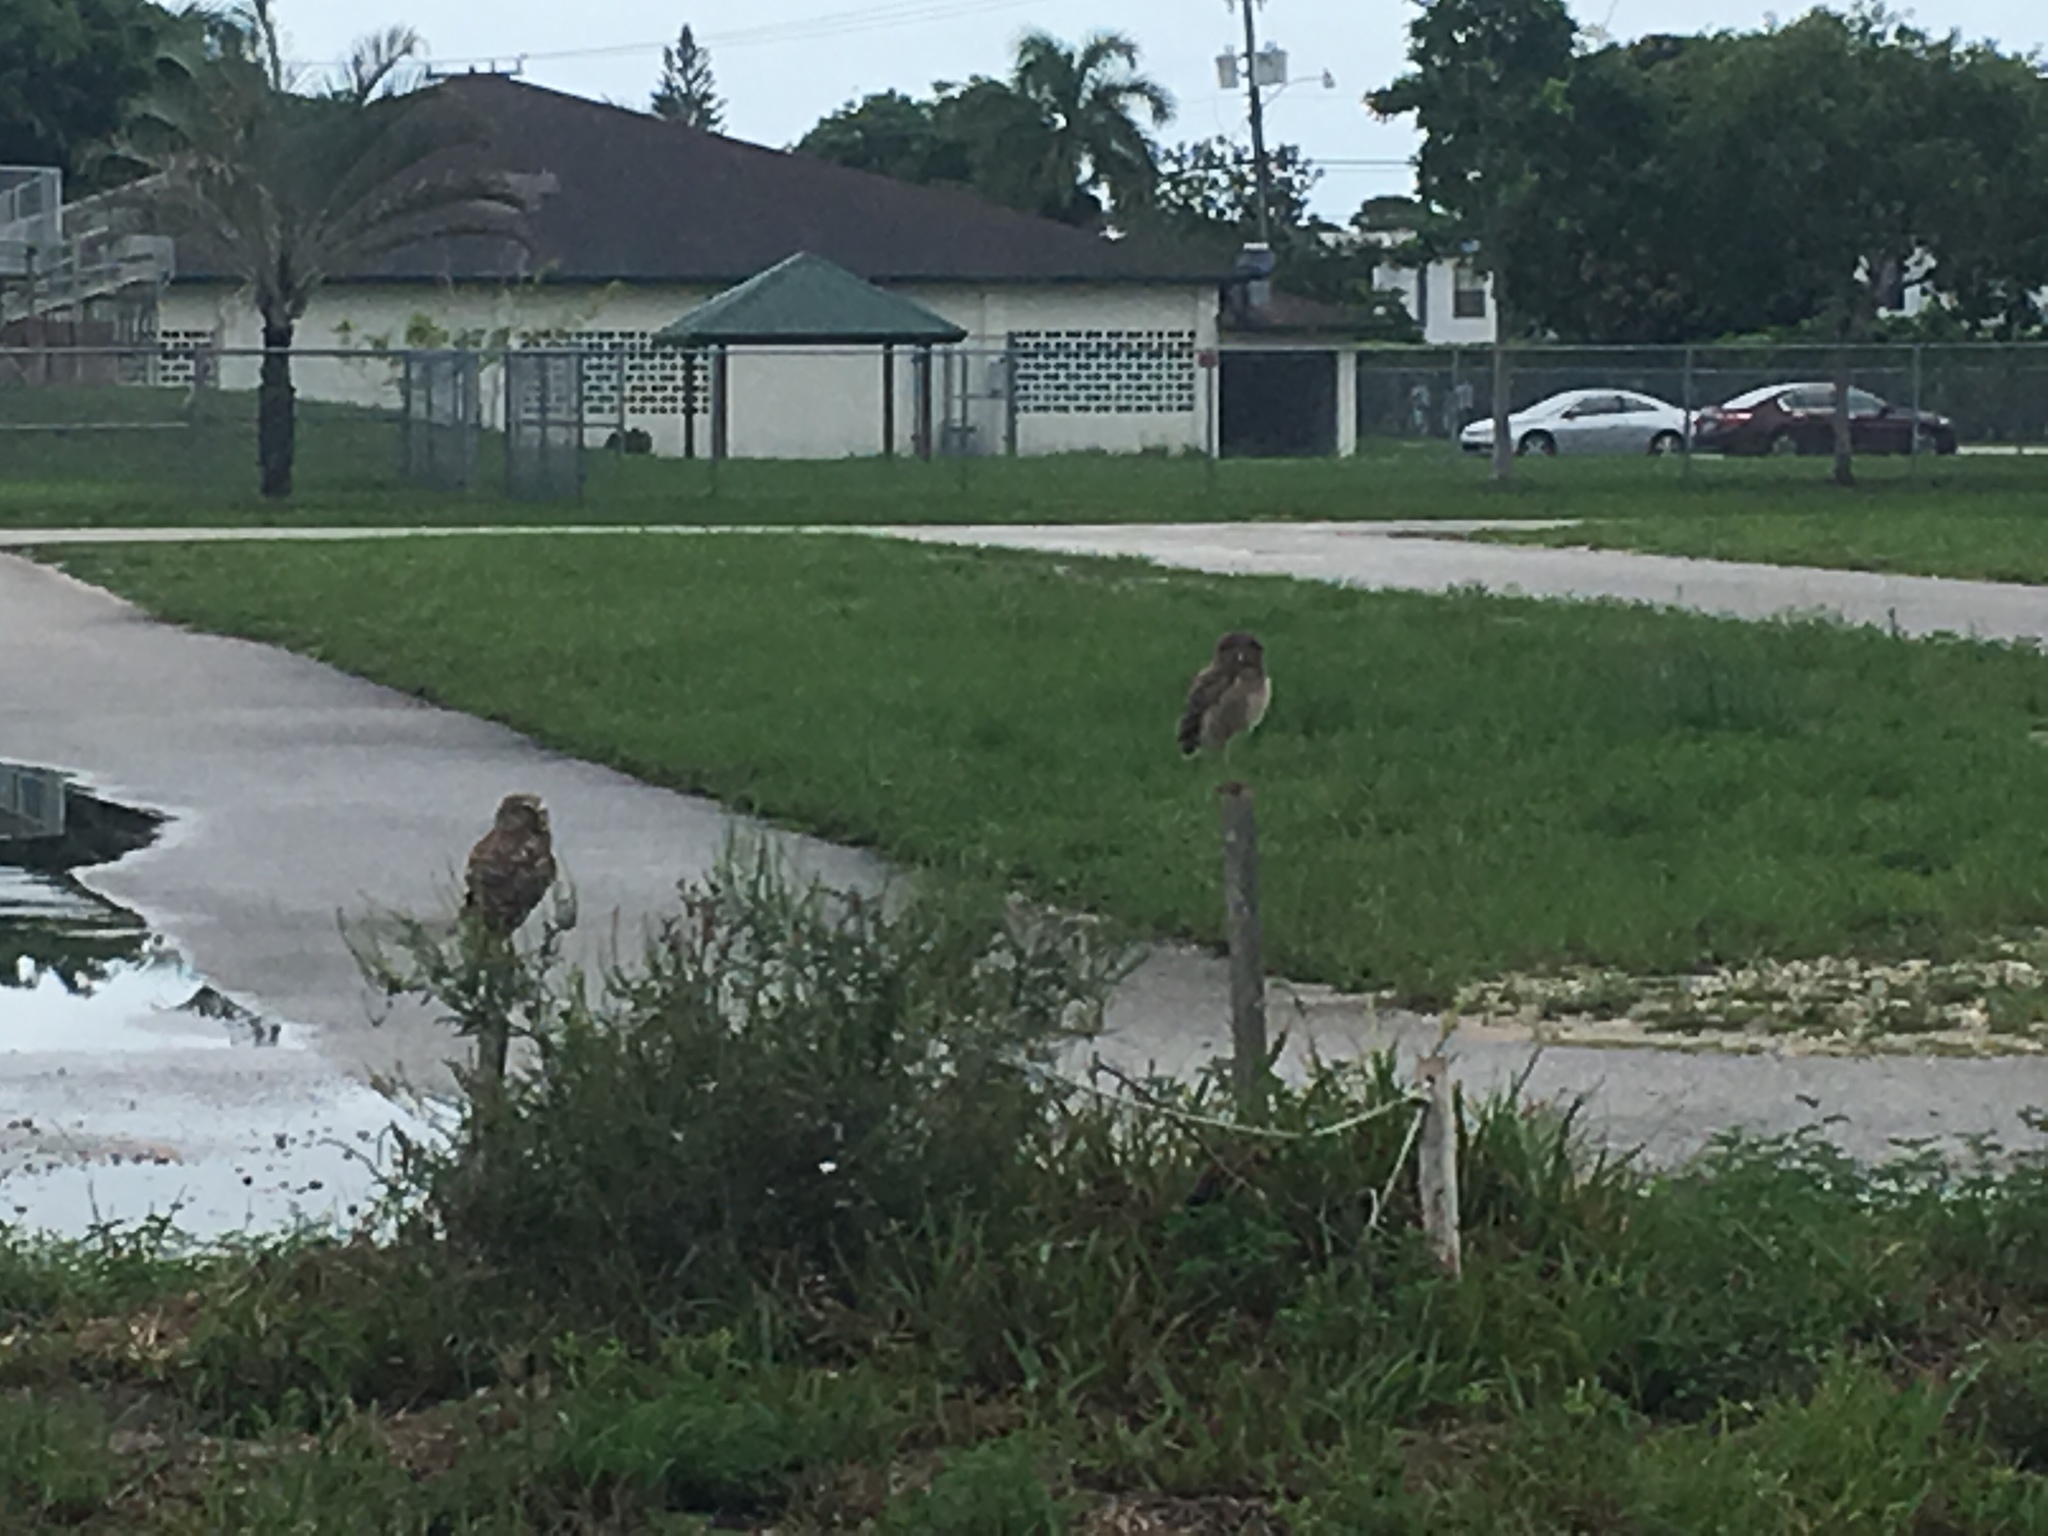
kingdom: Animalia
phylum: Chordata
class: Aves
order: Strigiformes
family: Strigidae
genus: Athene
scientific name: Athene cunicularia
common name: Burrowing owl
